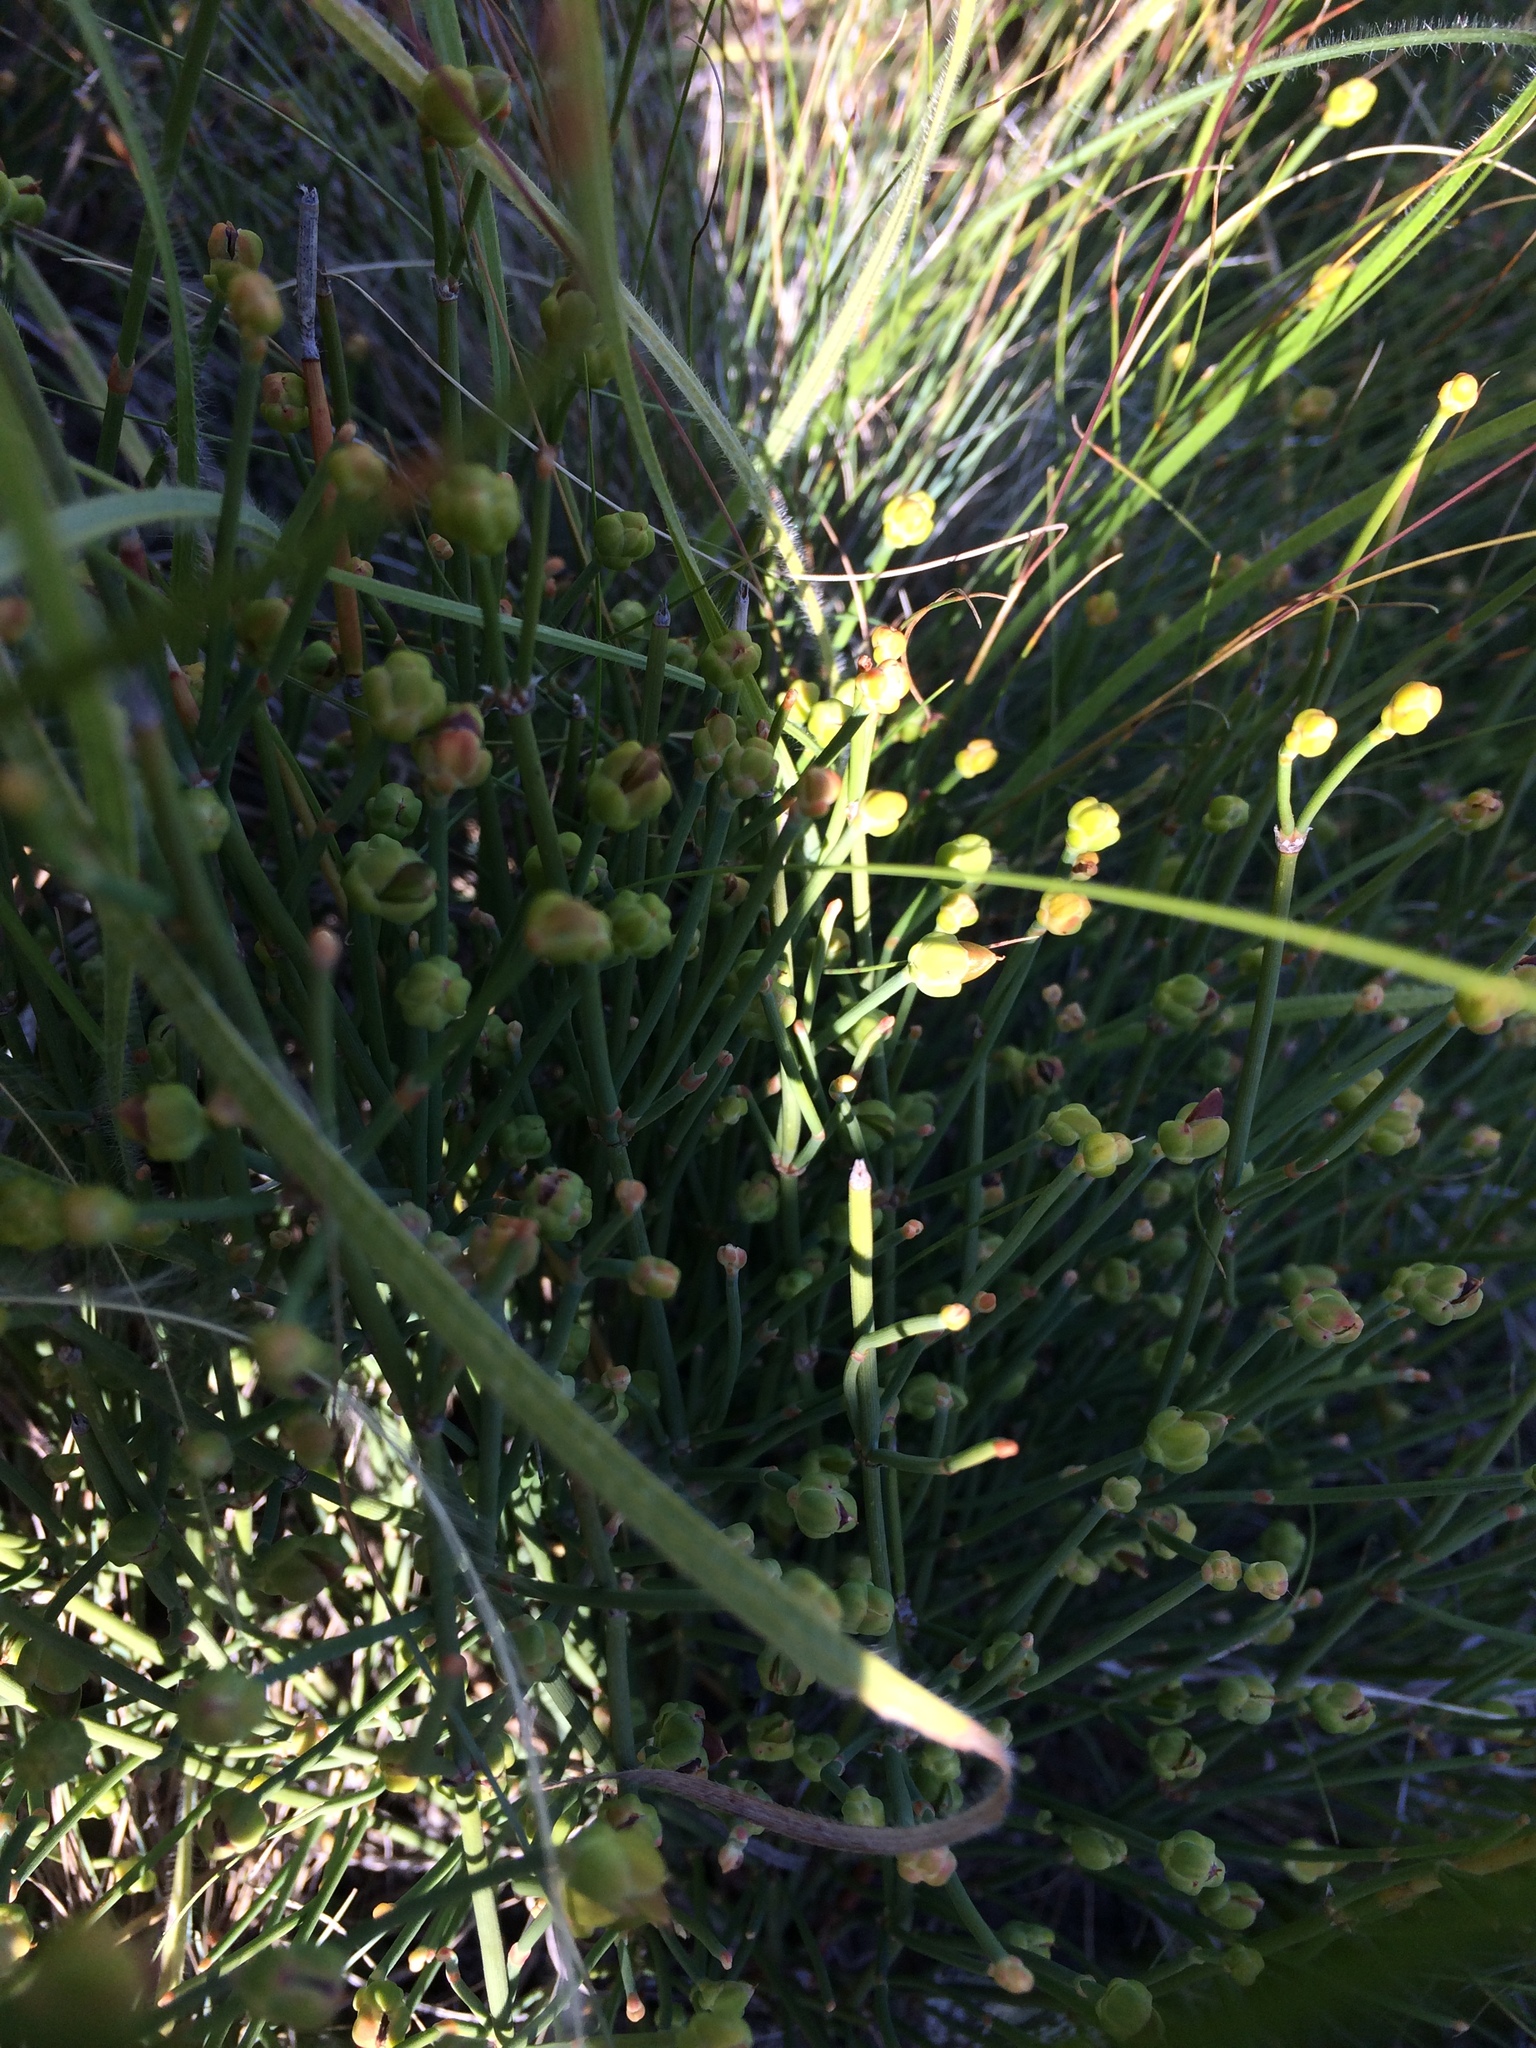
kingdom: Plantae
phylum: Tracheophyta
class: Gnetopsida
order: Ephedrales
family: Ephedraceae
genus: Ephedra
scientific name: Ephedra distachya
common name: Sea grape
